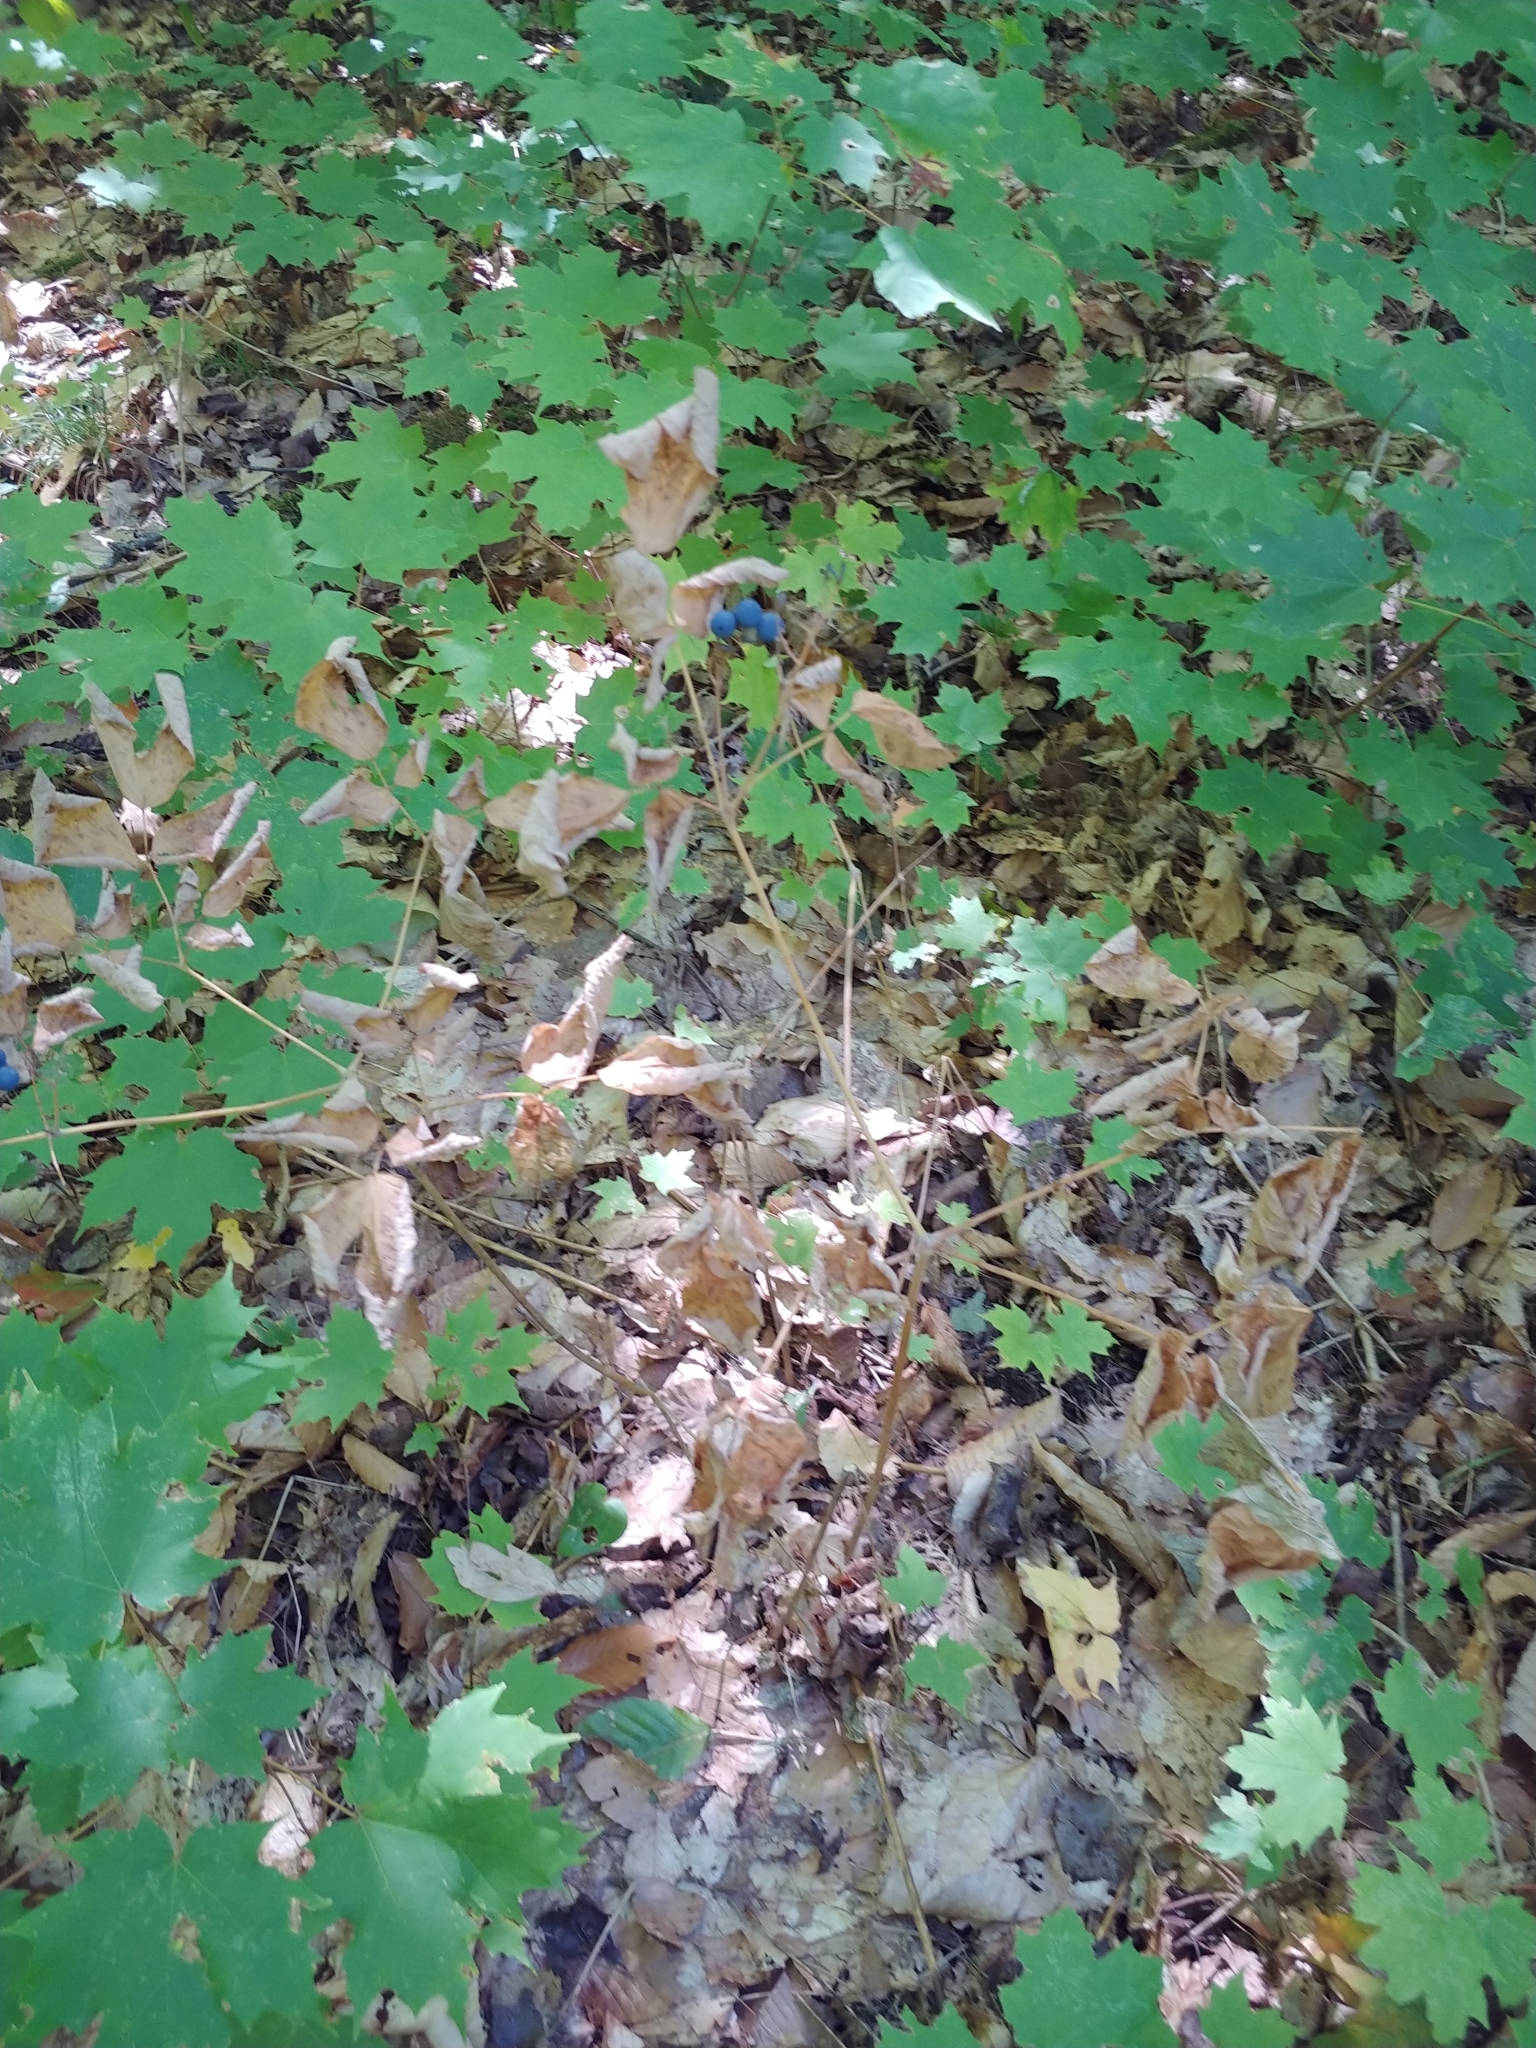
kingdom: Plantae
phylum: Tracheophyta
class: Magnoliopsida
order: Ranunculales
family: Berberidaceae
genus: Caulophyllum
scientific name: Caulophyllum
